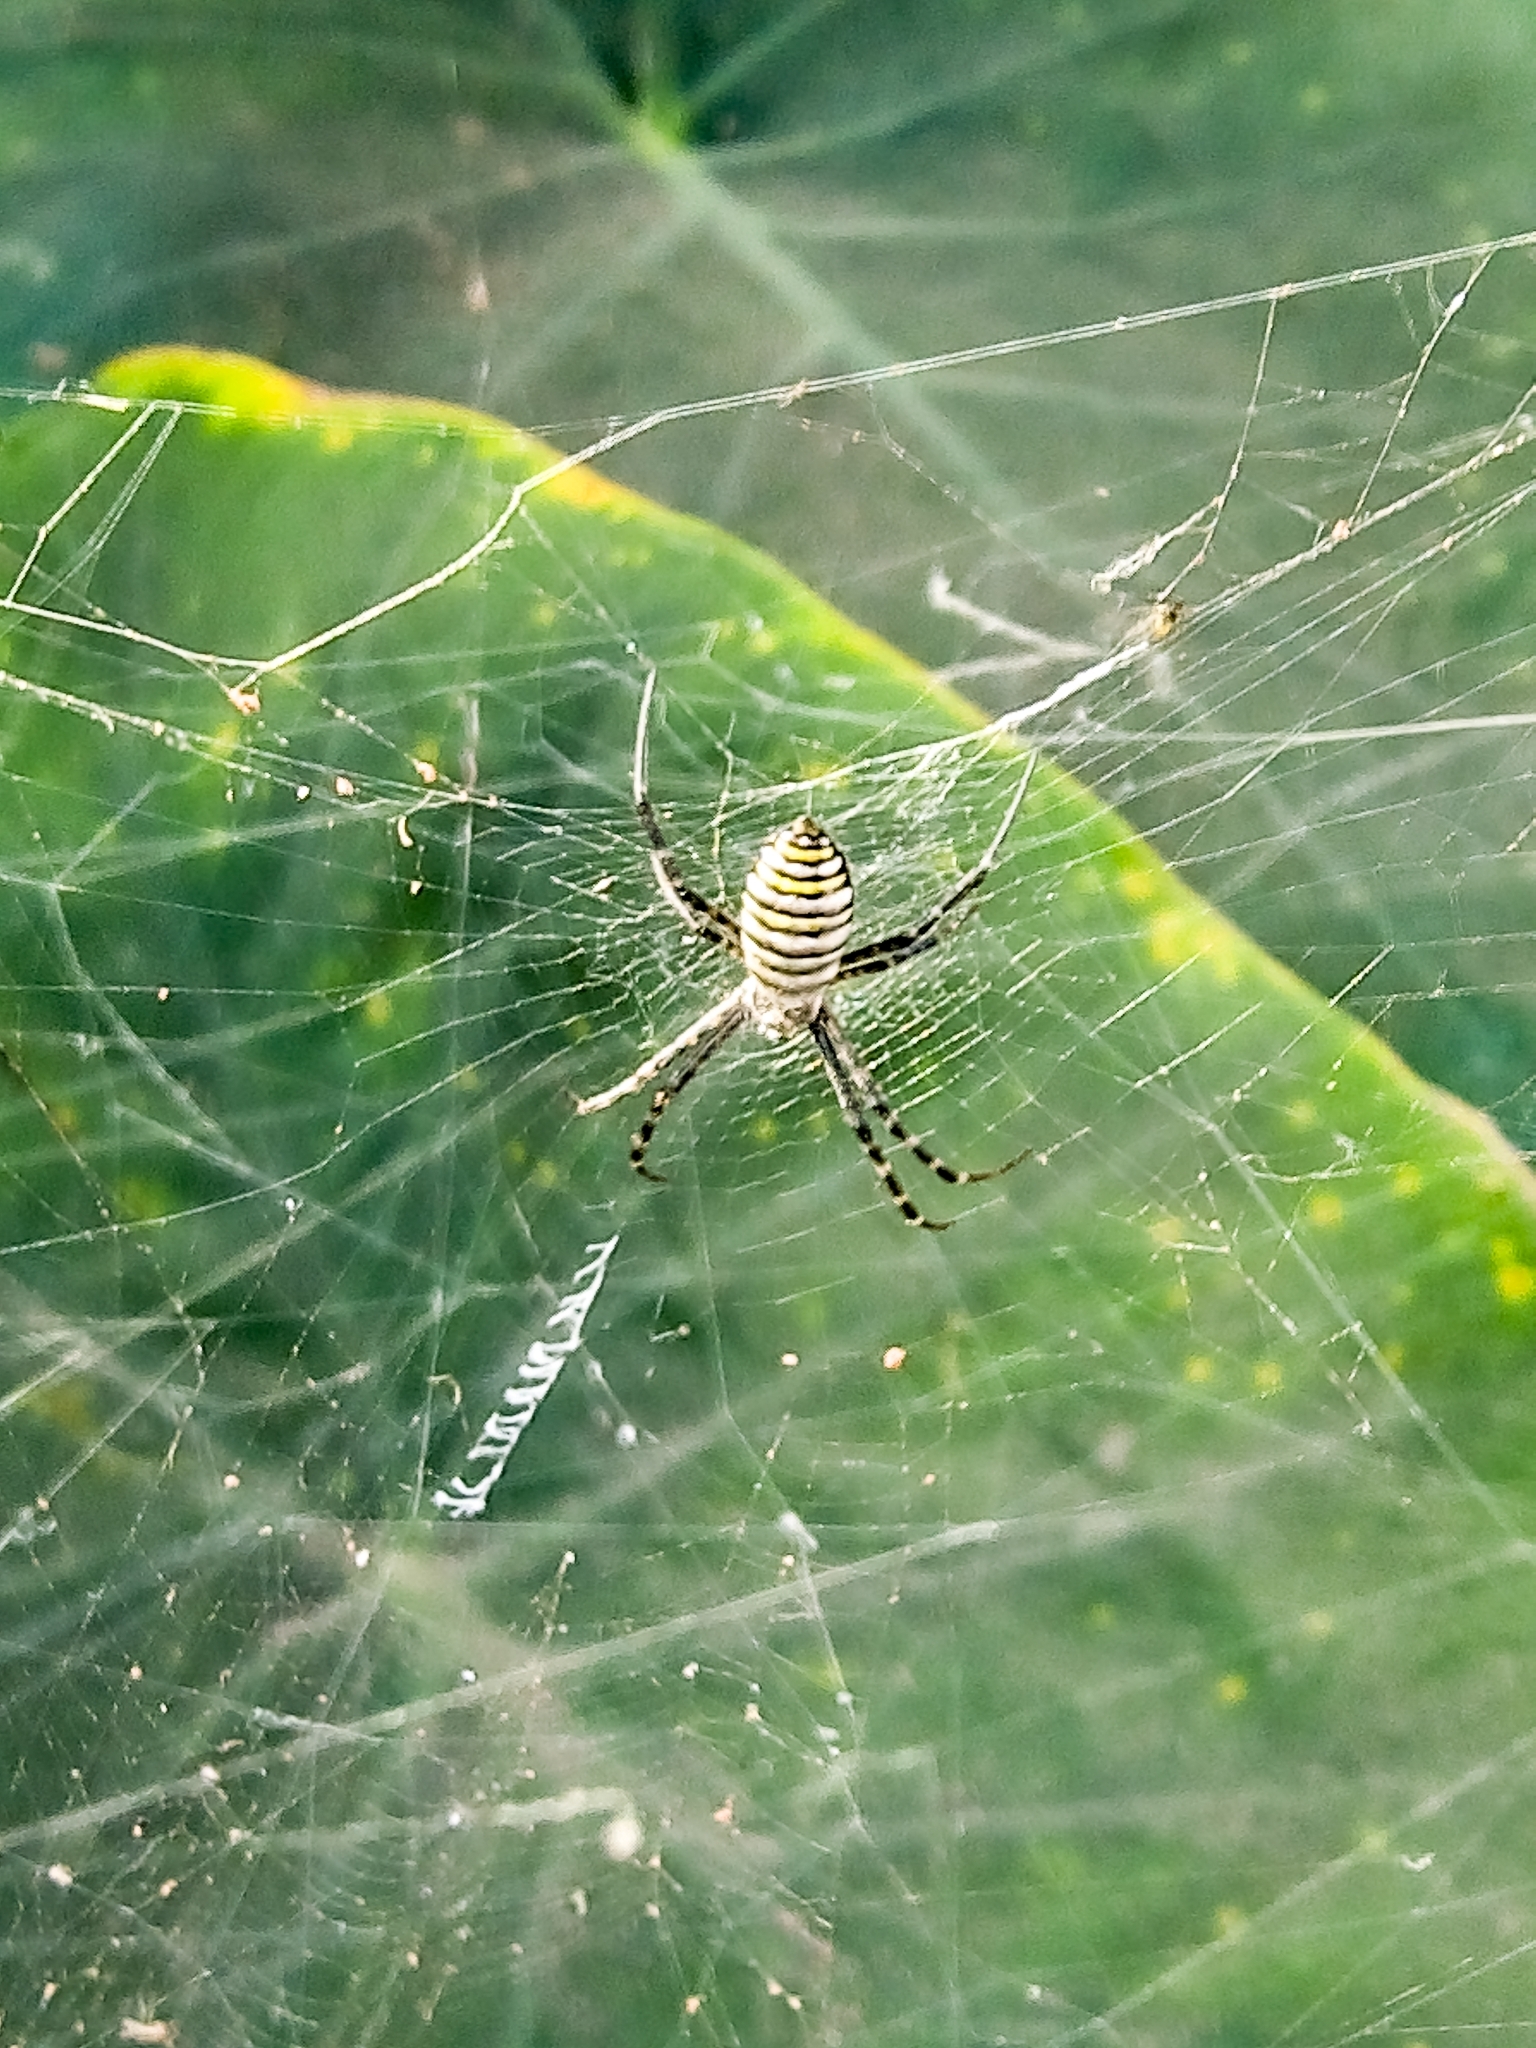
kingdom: Animalia
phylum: Arthropoda
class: Arachnida
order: Araneae
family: Araneidae
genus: Argiope
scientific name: Argiope trifasciata
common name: Banded garden spider
